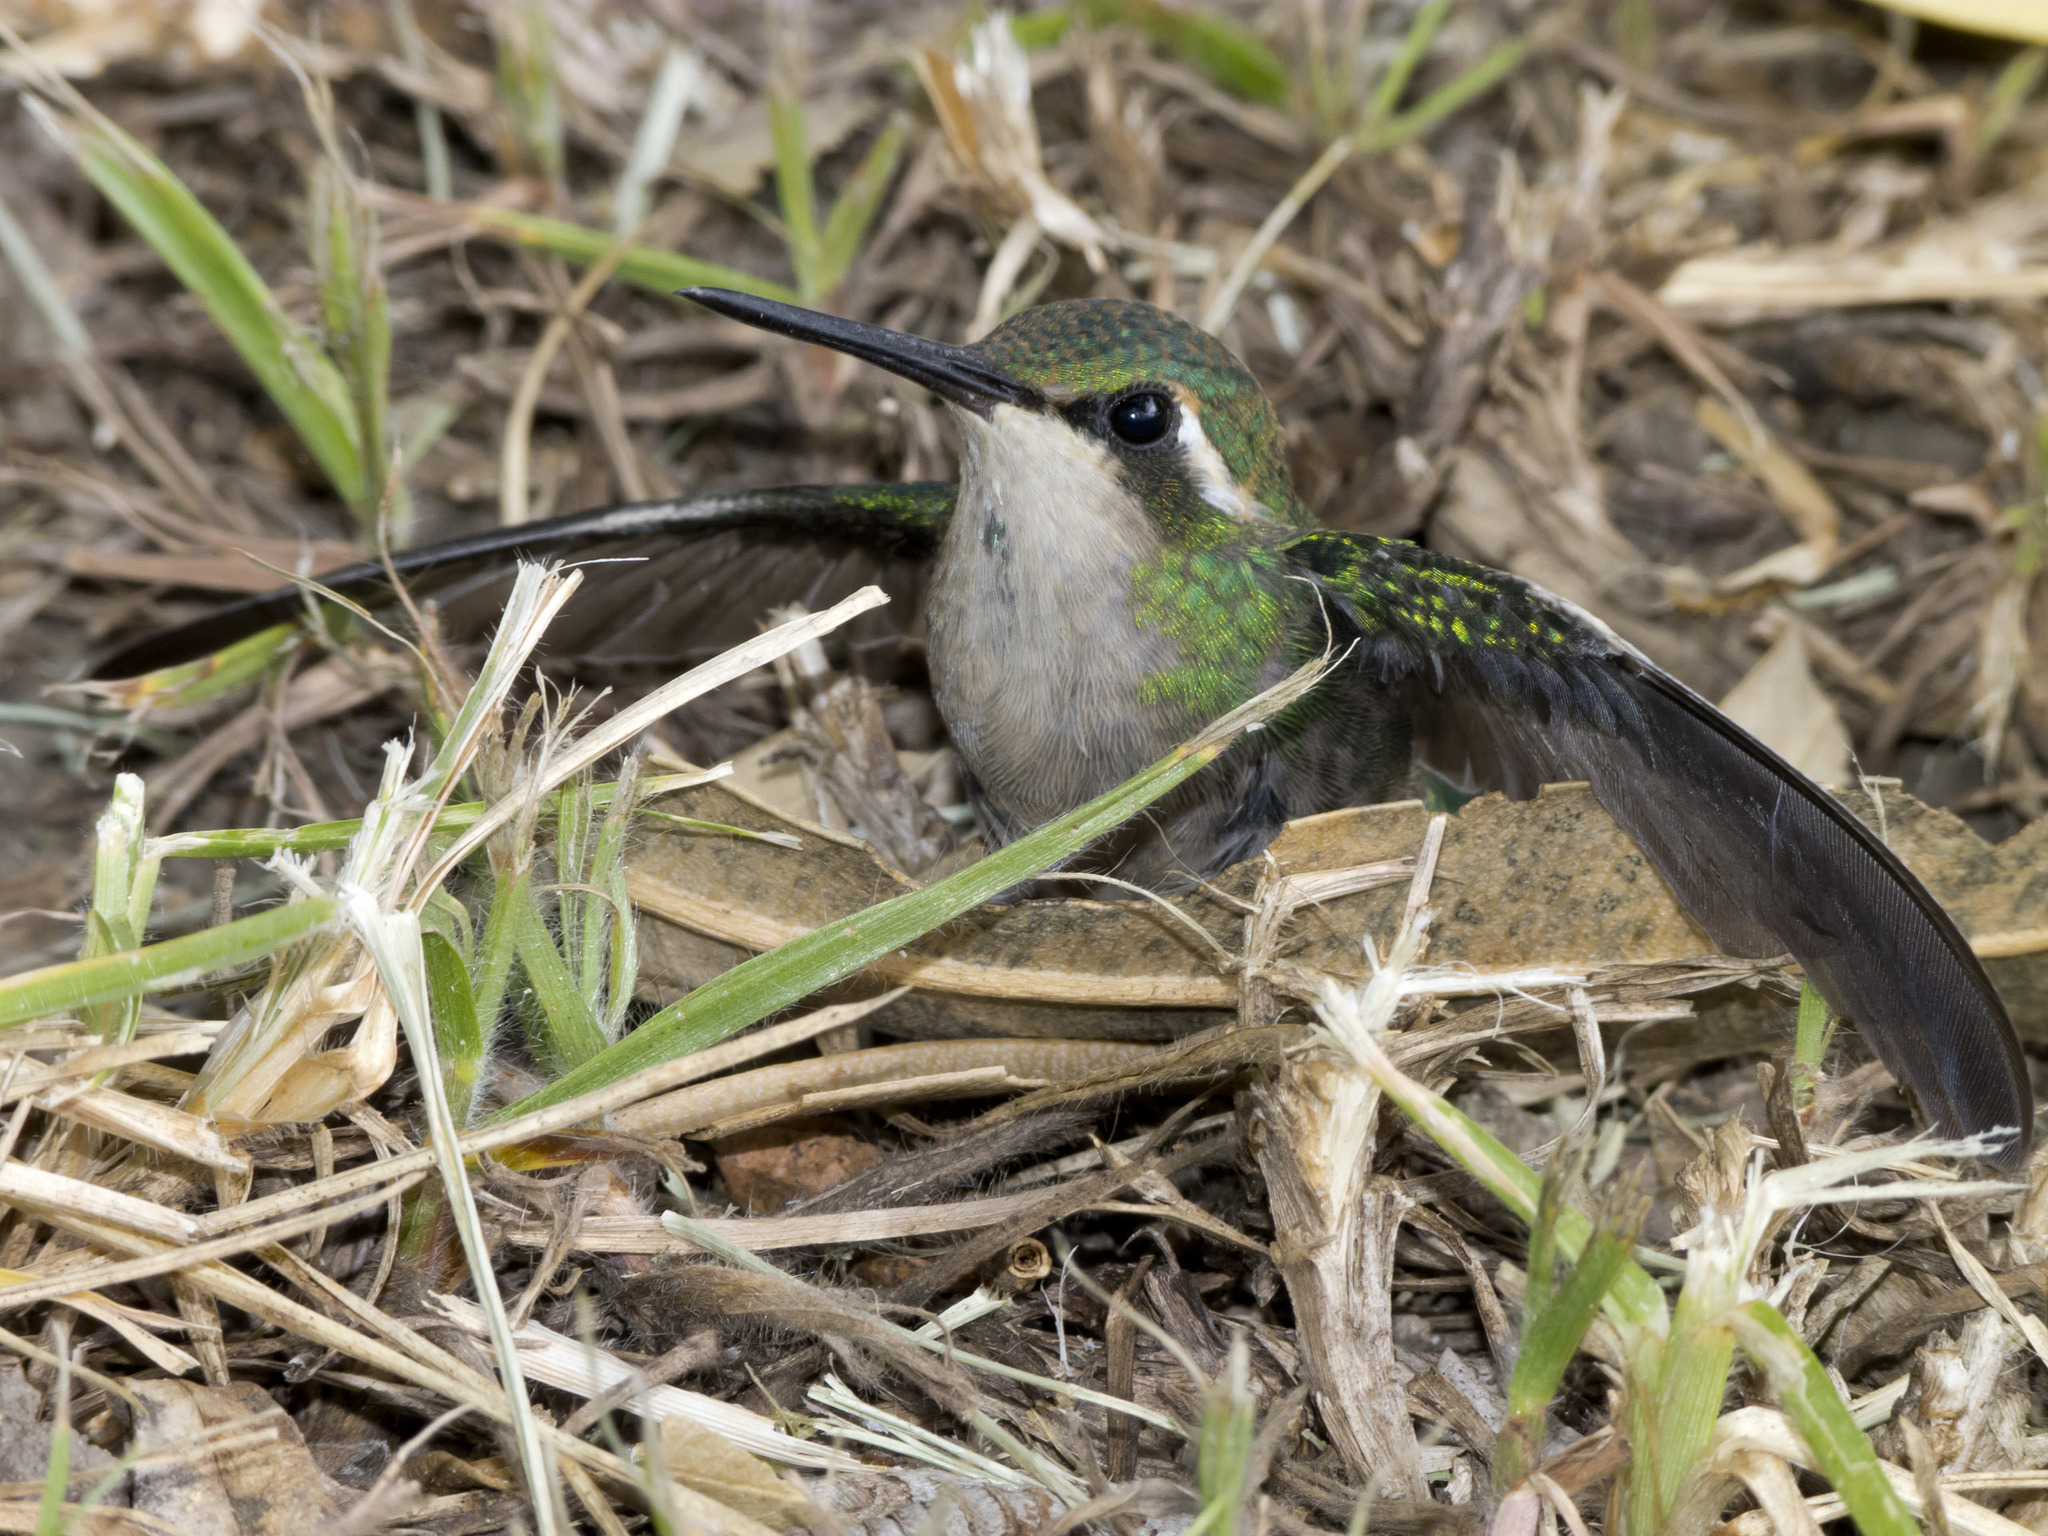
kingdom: Animalia
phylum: Chordata
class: Aves
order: Apodiformes
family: Trochilidae
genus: Chlorostilbon
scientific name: Chlorostilbon poortmani
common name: Short-tailed emerald
